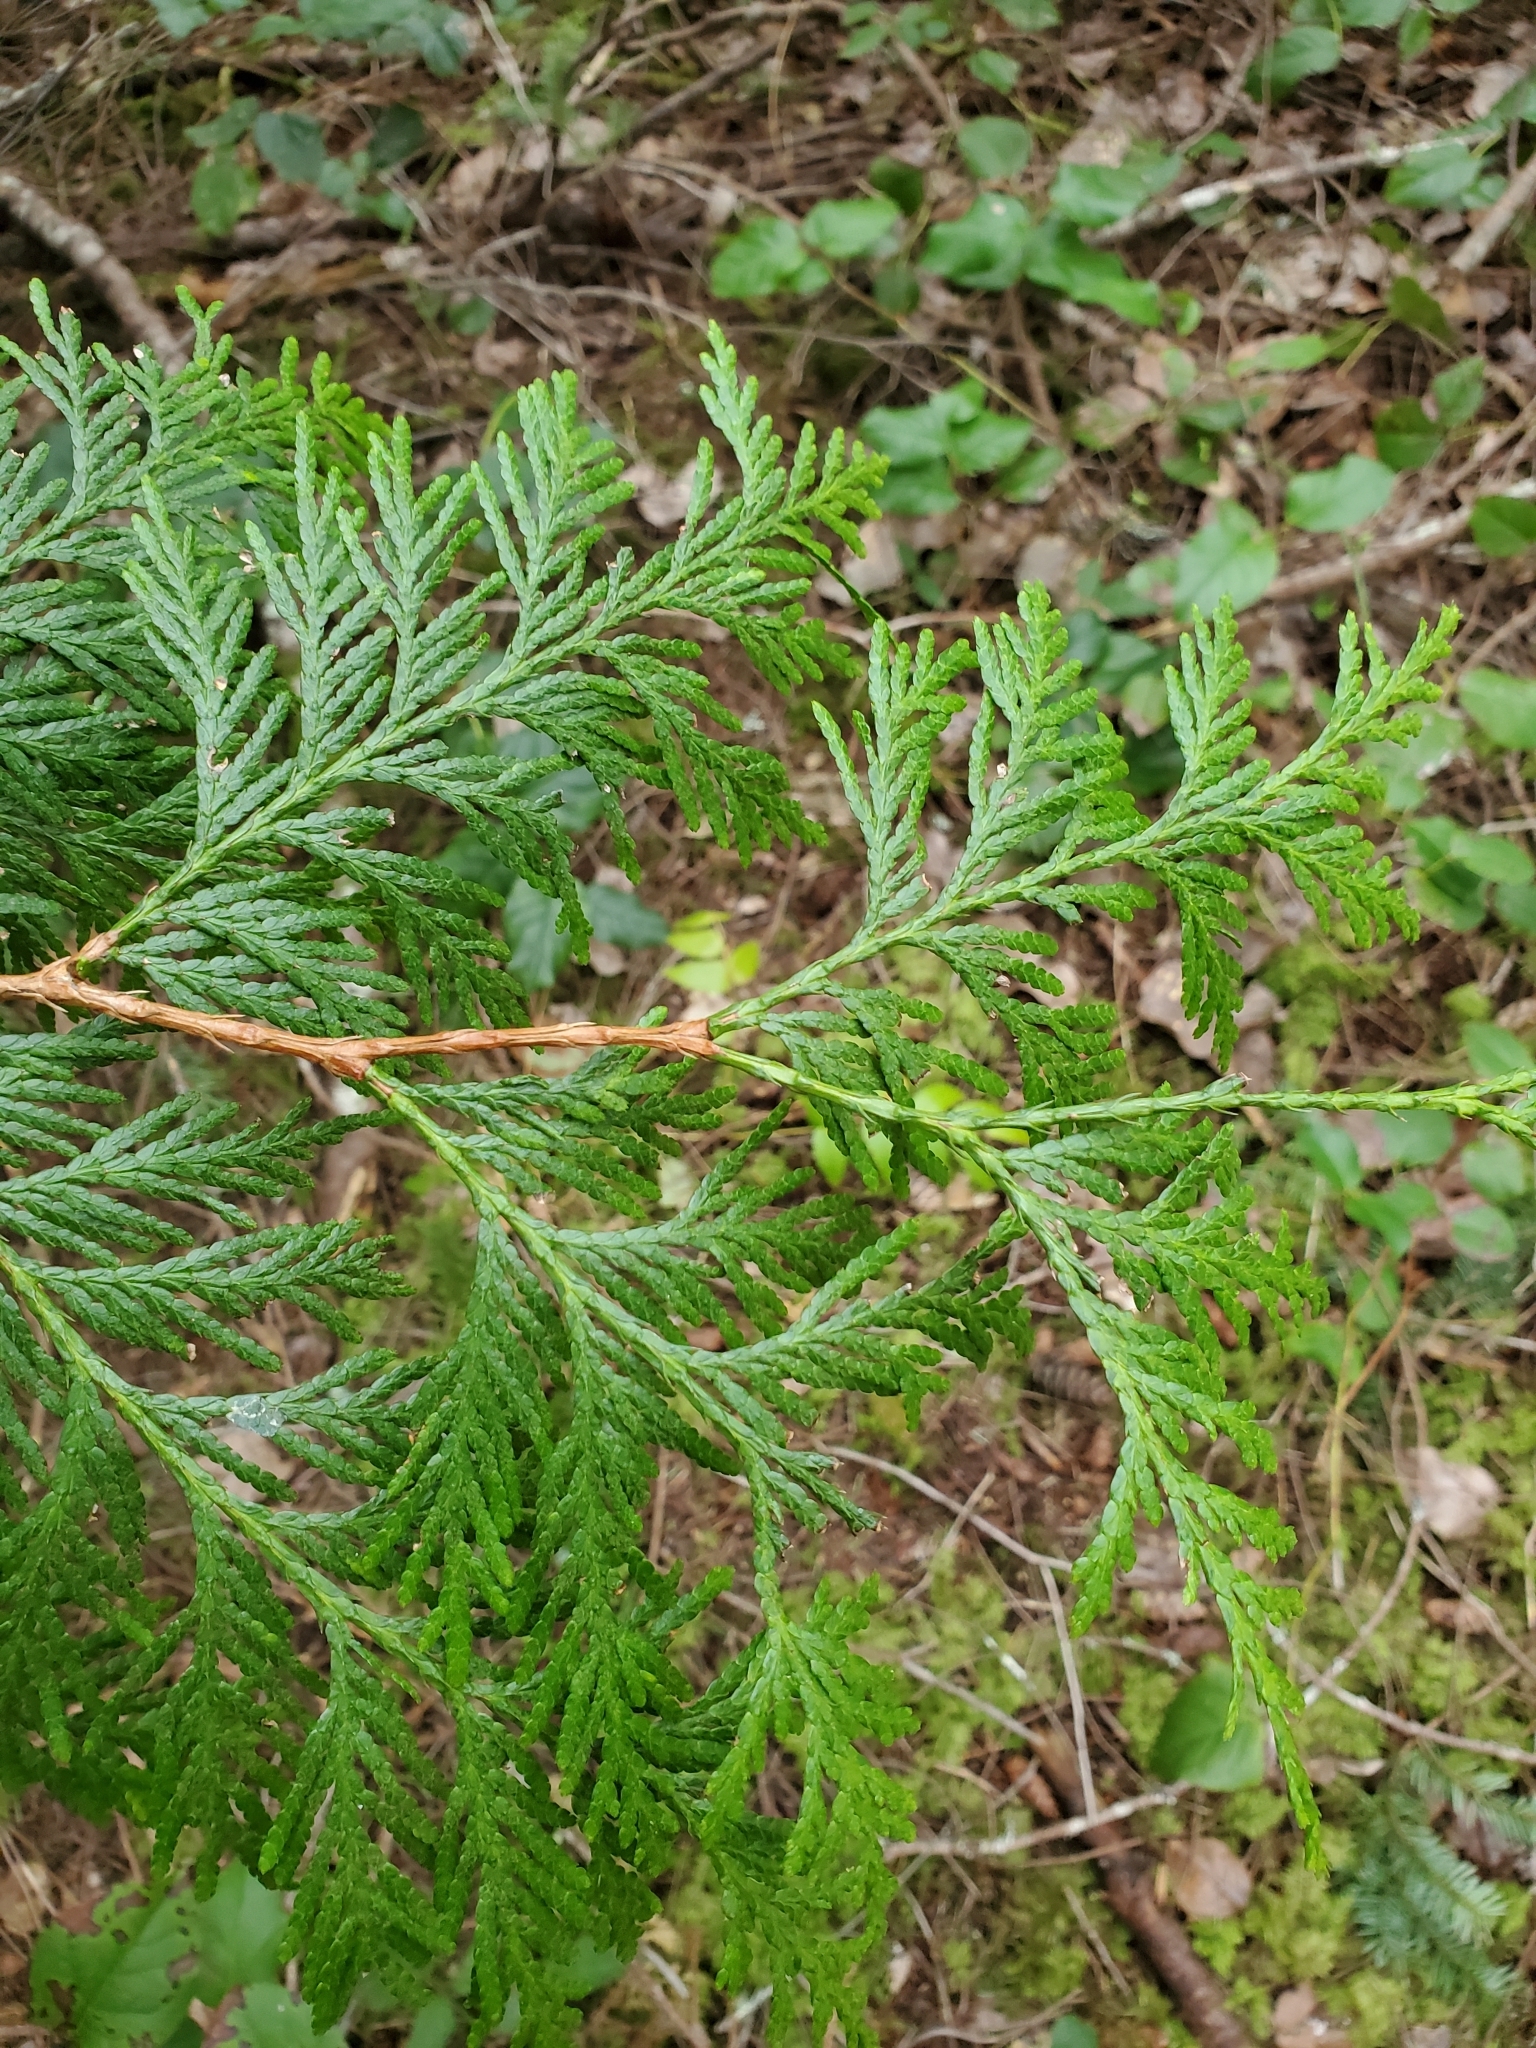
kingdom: Plantae
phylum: Tracheophyta
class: Pinopsida
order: Pinales
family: Cupressaceae
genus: Thuja
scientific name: Thuja plicata
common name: Western red-cedar
